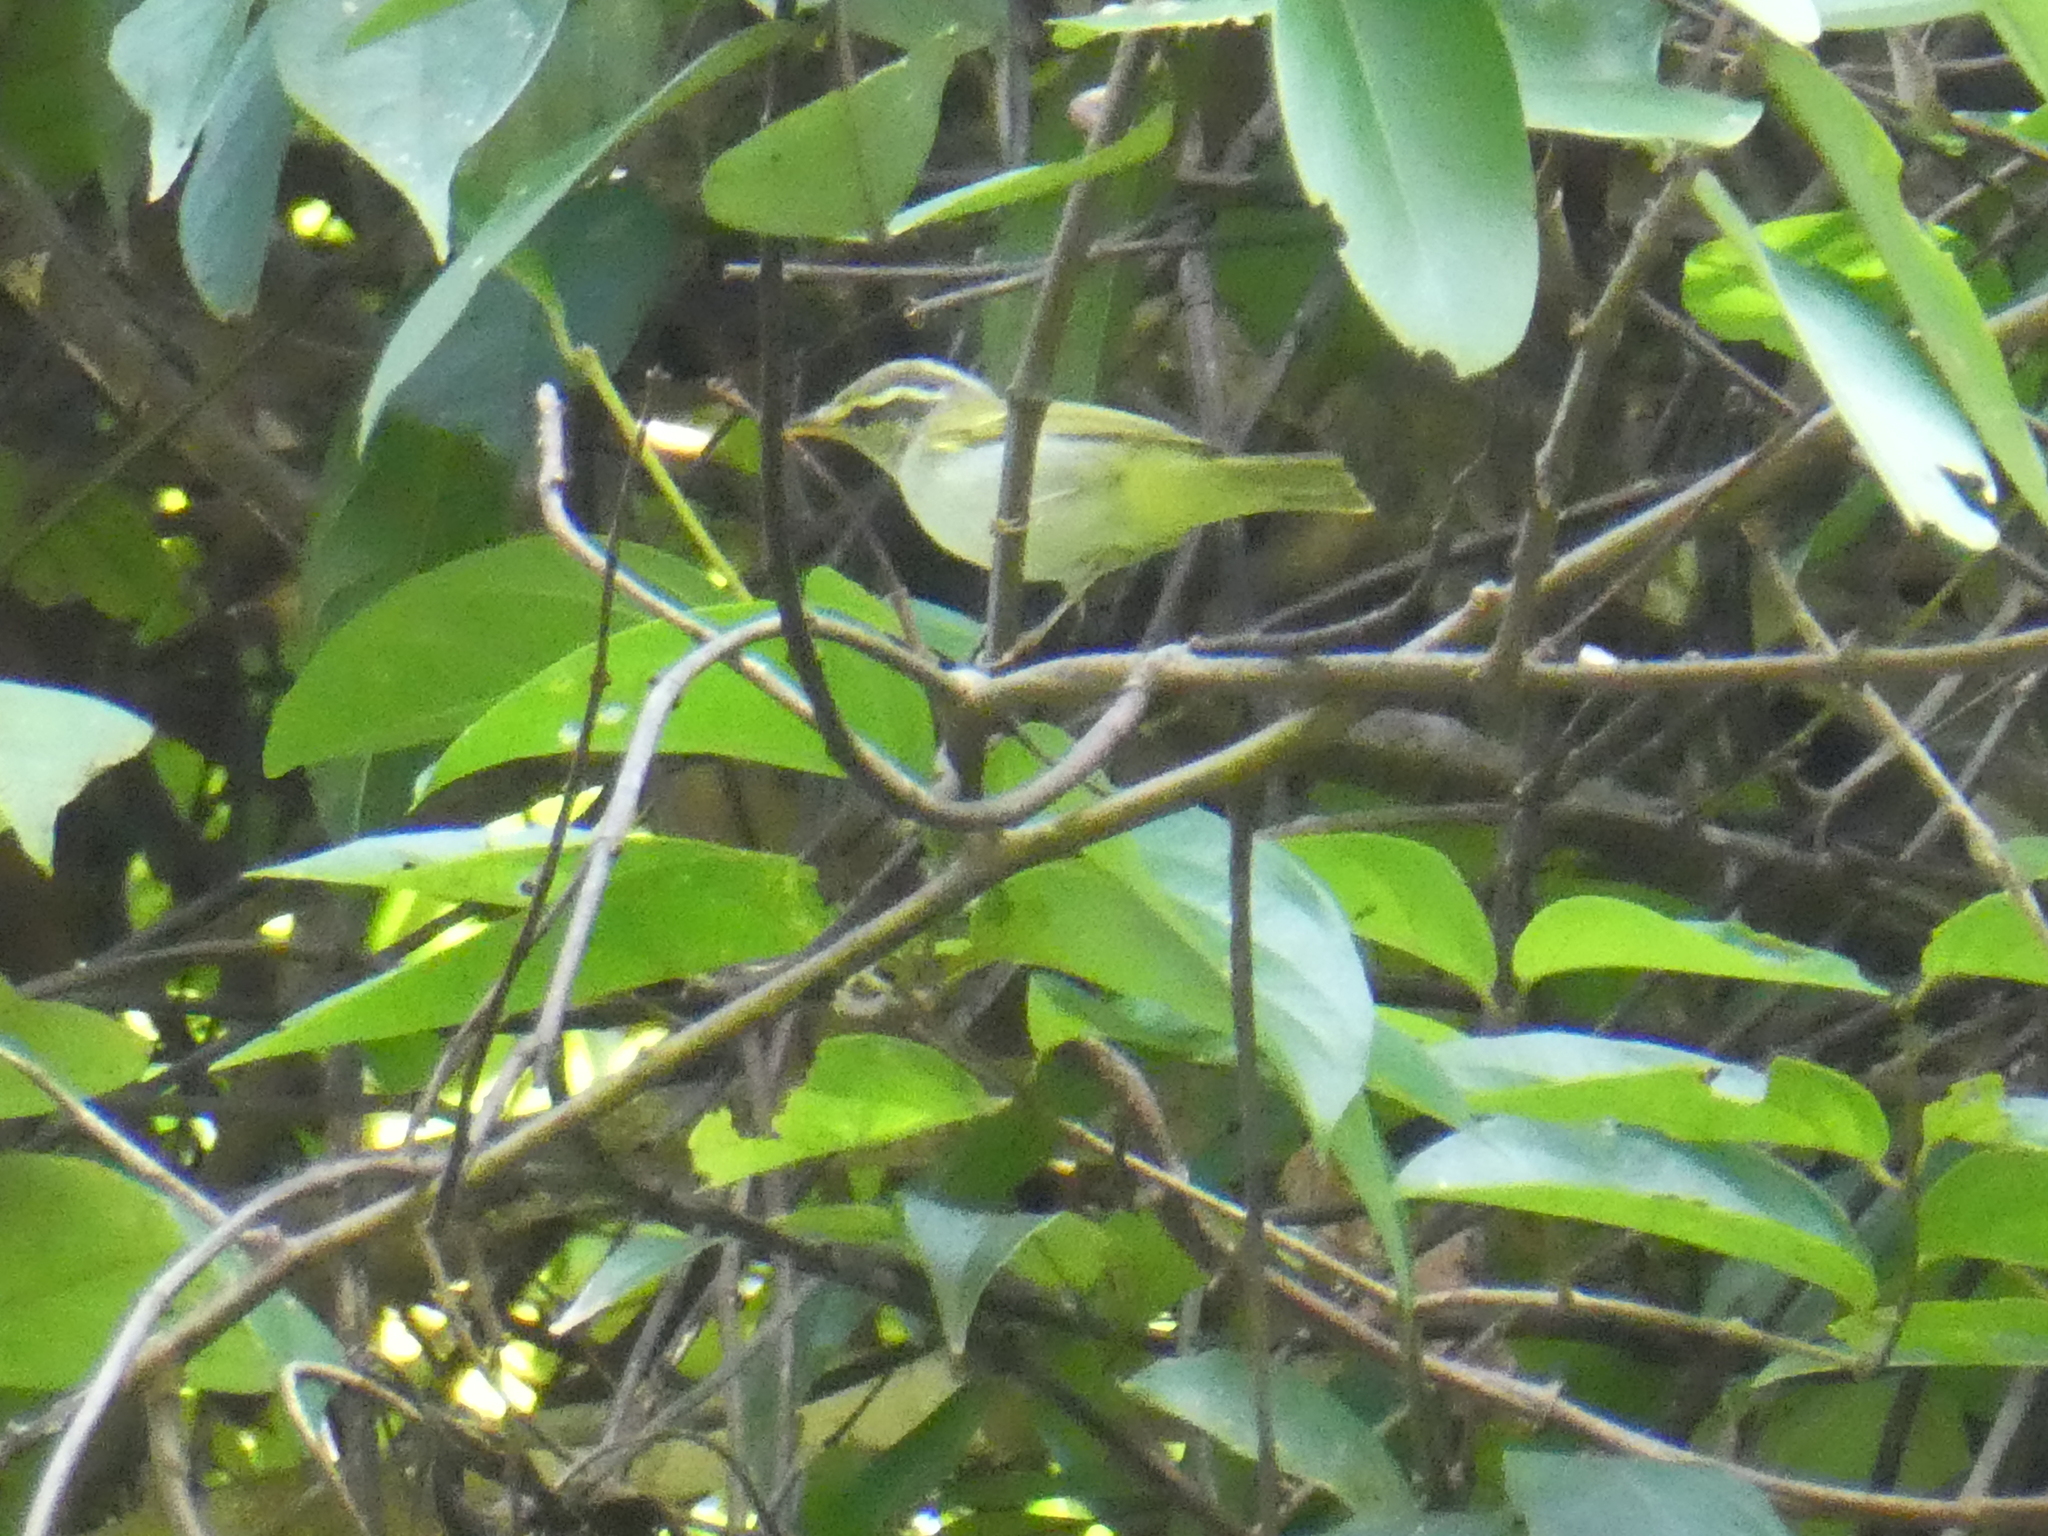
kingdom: Animalia
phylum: Chordata
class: Aves
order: Passeriformes
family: Phylloscopidae
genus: Phylloscopus
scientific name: Phylloscopus coronatus
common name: Eastern crowned warbler
